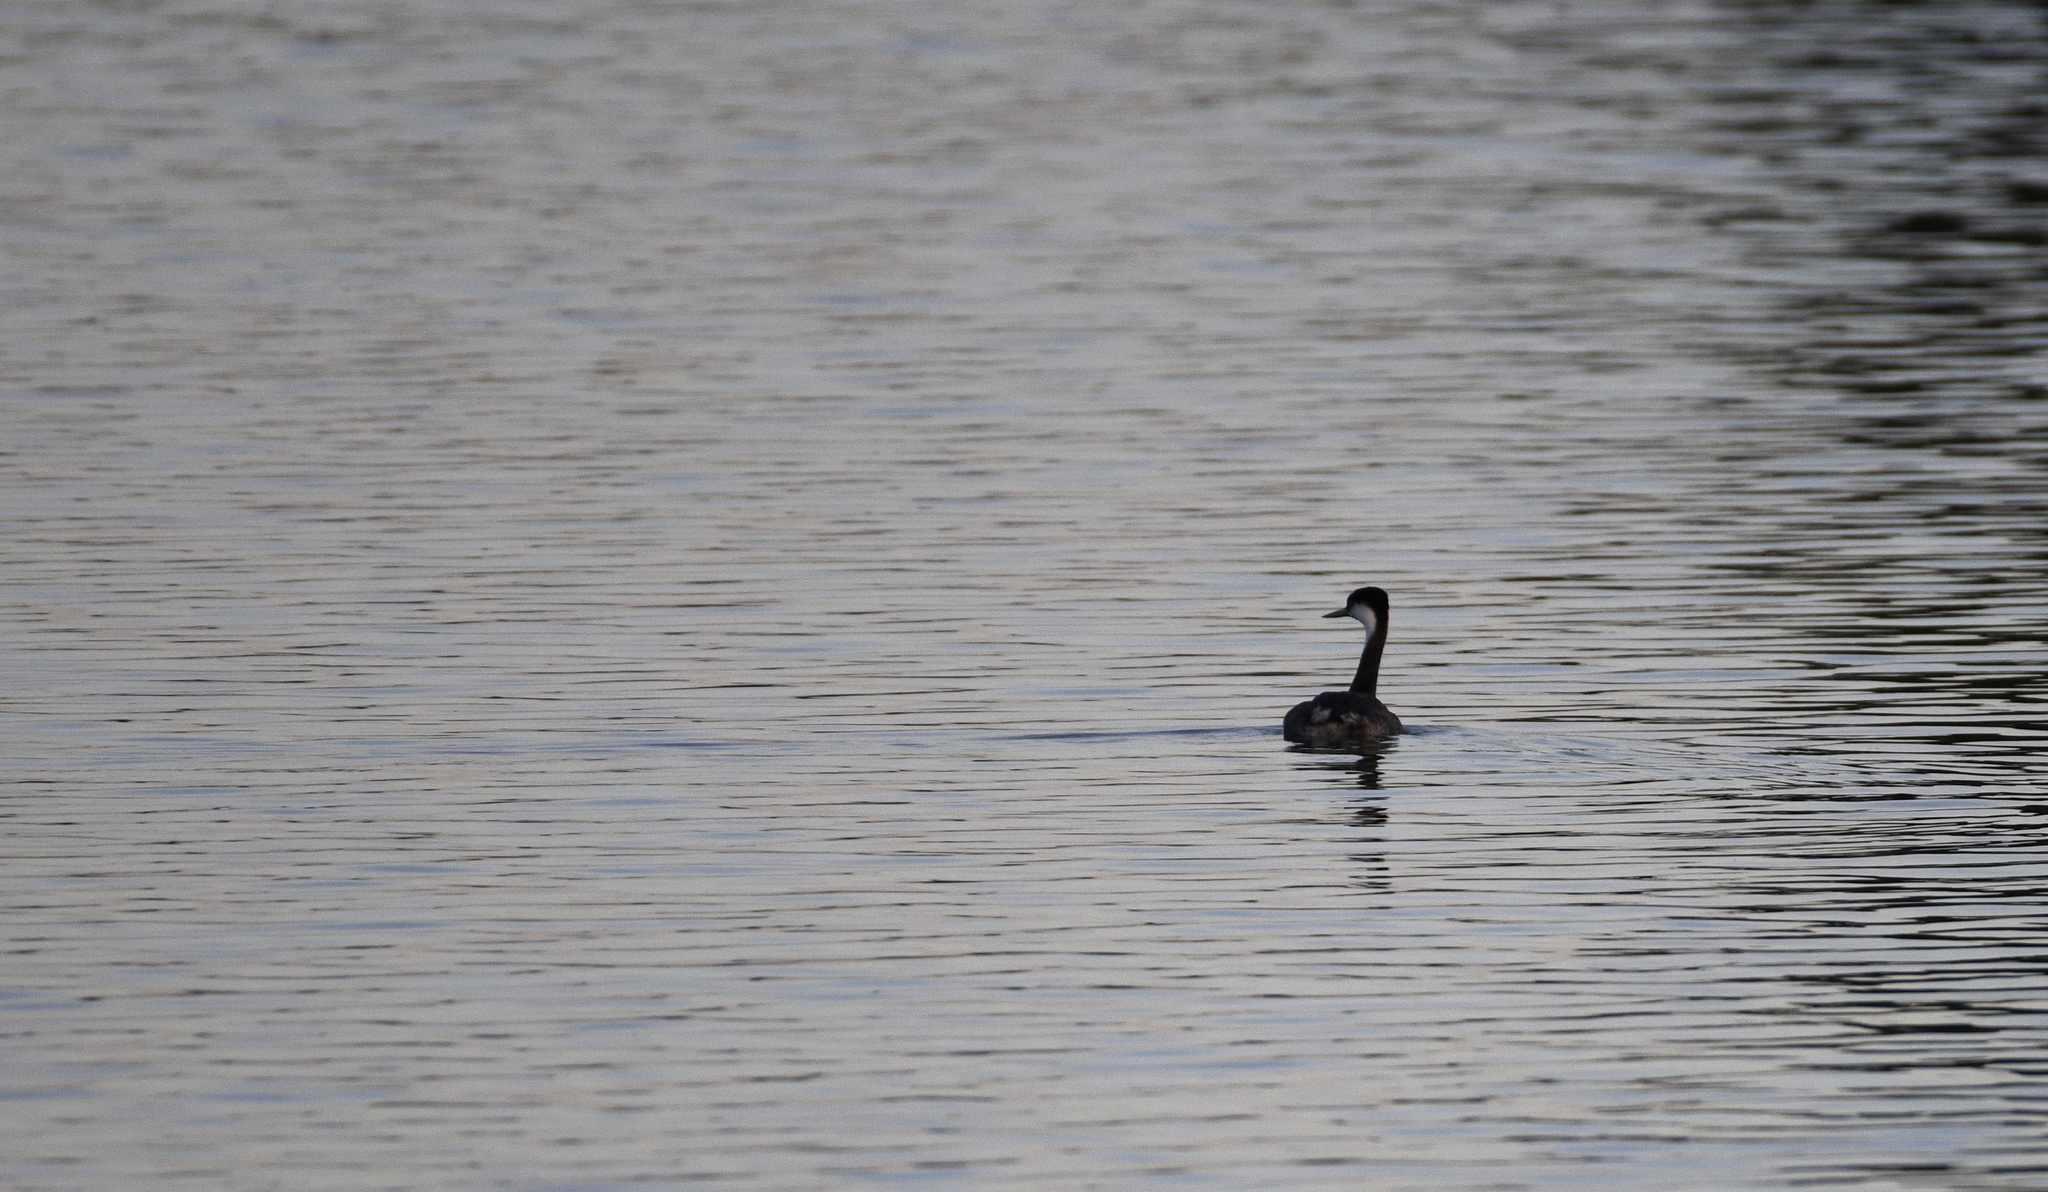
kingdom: Animalia
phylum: Chordata
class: Aves
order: Podicipediformes
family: Podicipedidae
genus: Aechmophorus
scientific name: Aechmophorus occidentalis
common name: Western grebe
